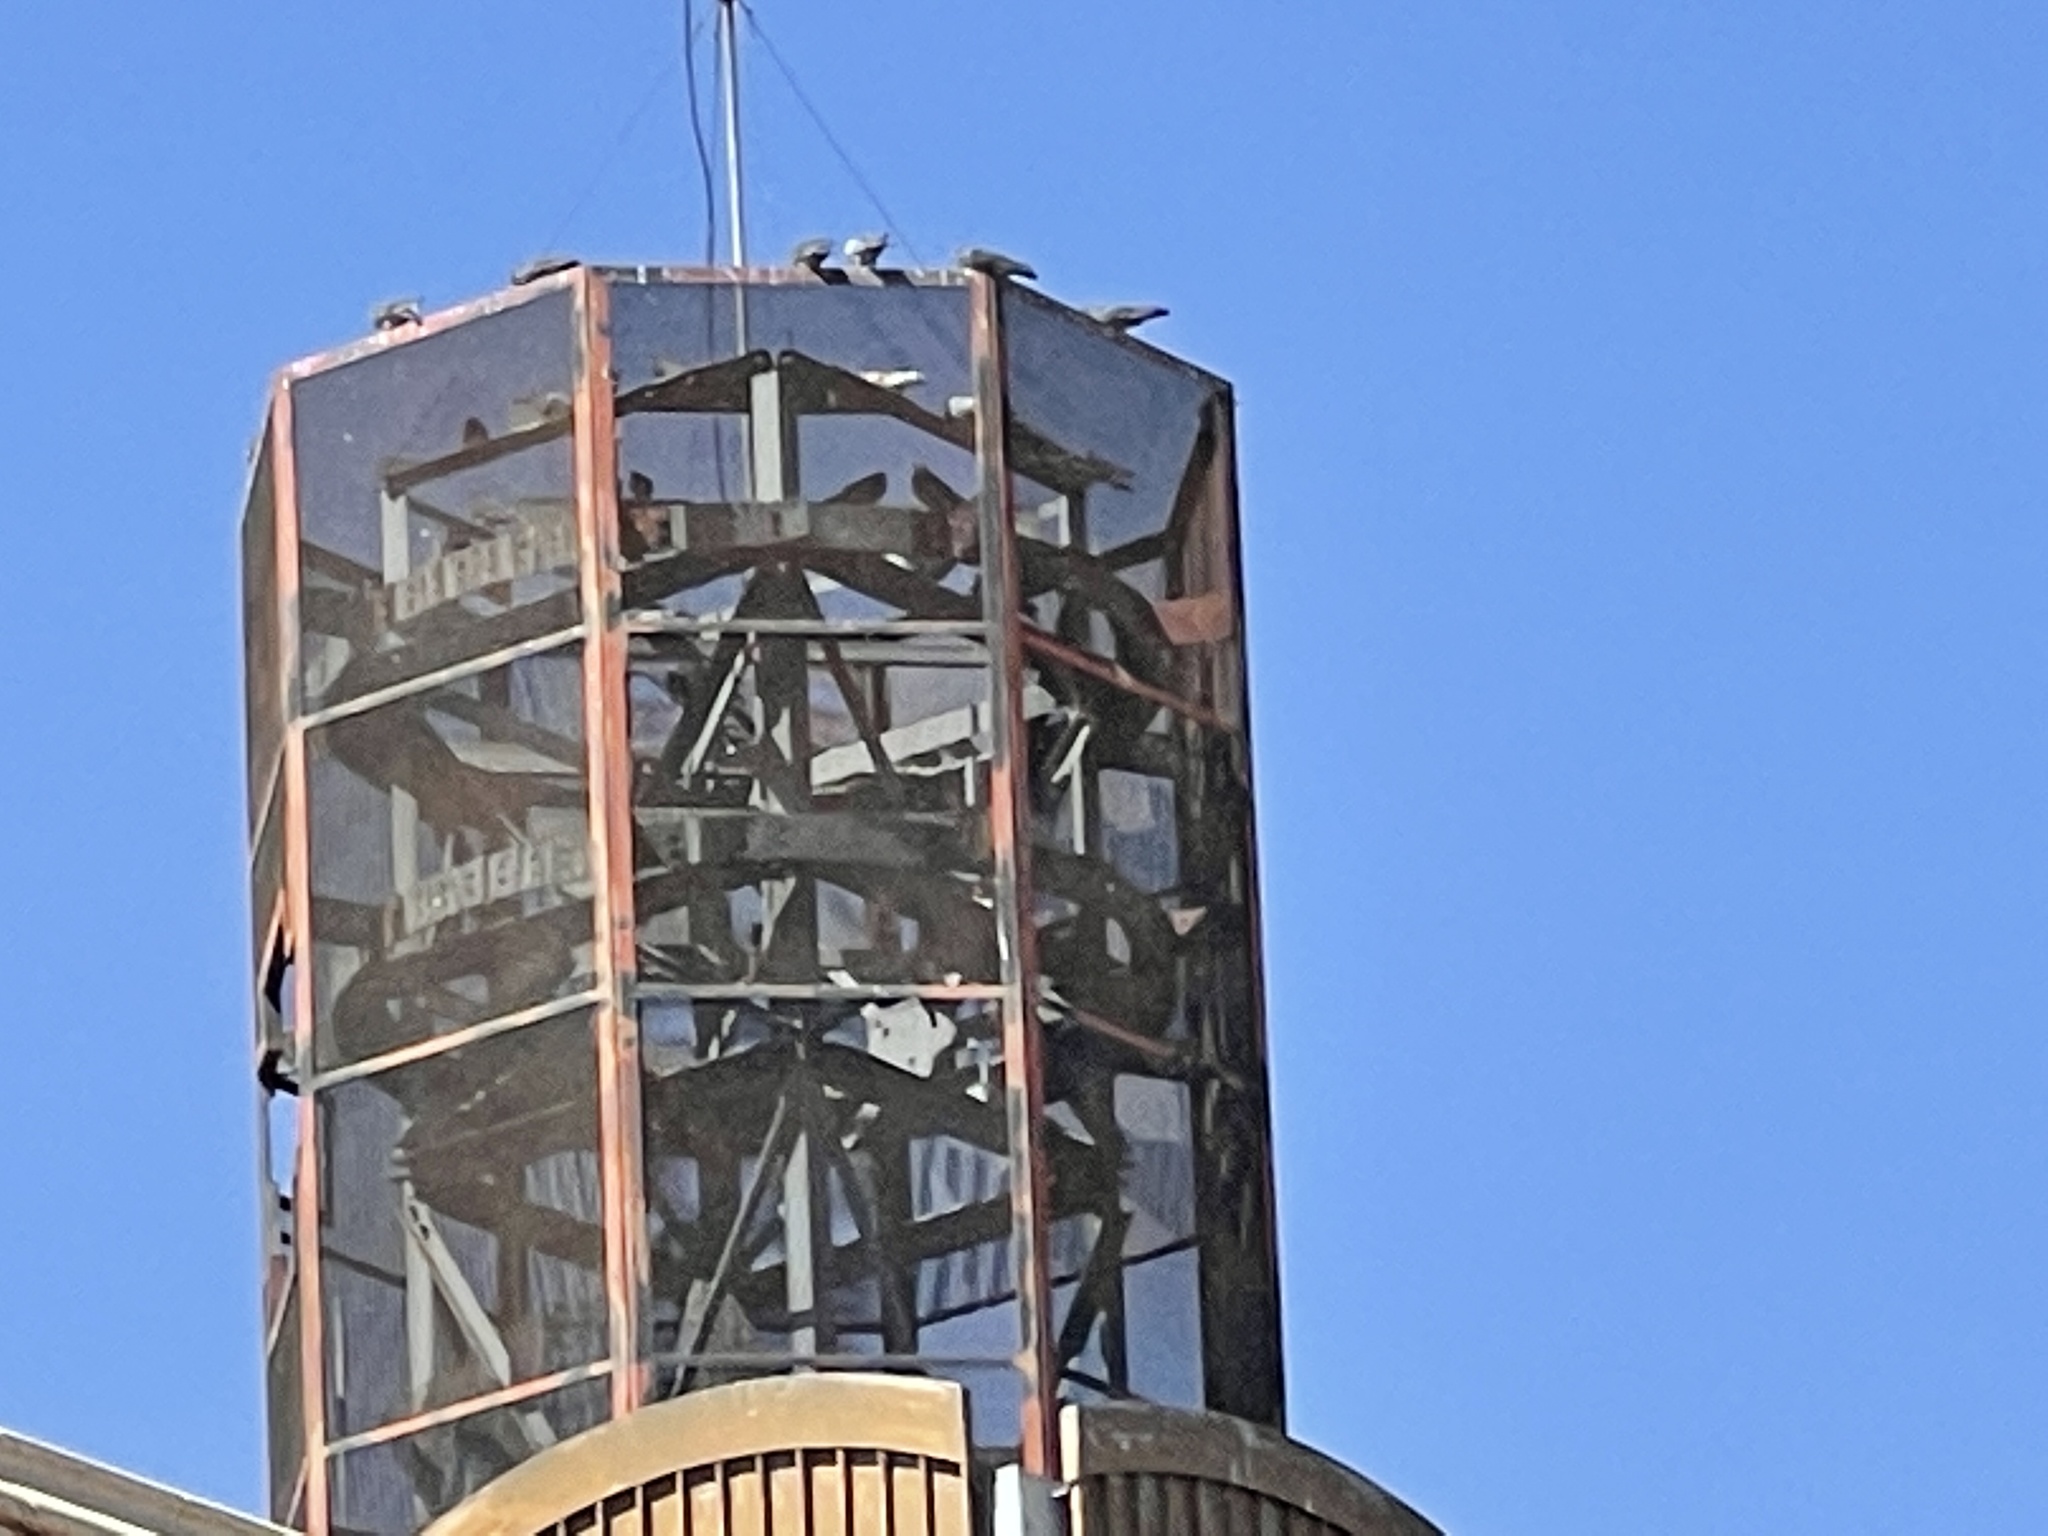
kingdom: Animalia
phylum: Chordata
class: Aves
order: Columbiformes
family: Columbidae
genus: Columba
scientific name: Columba livia
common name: Rock pigeon
